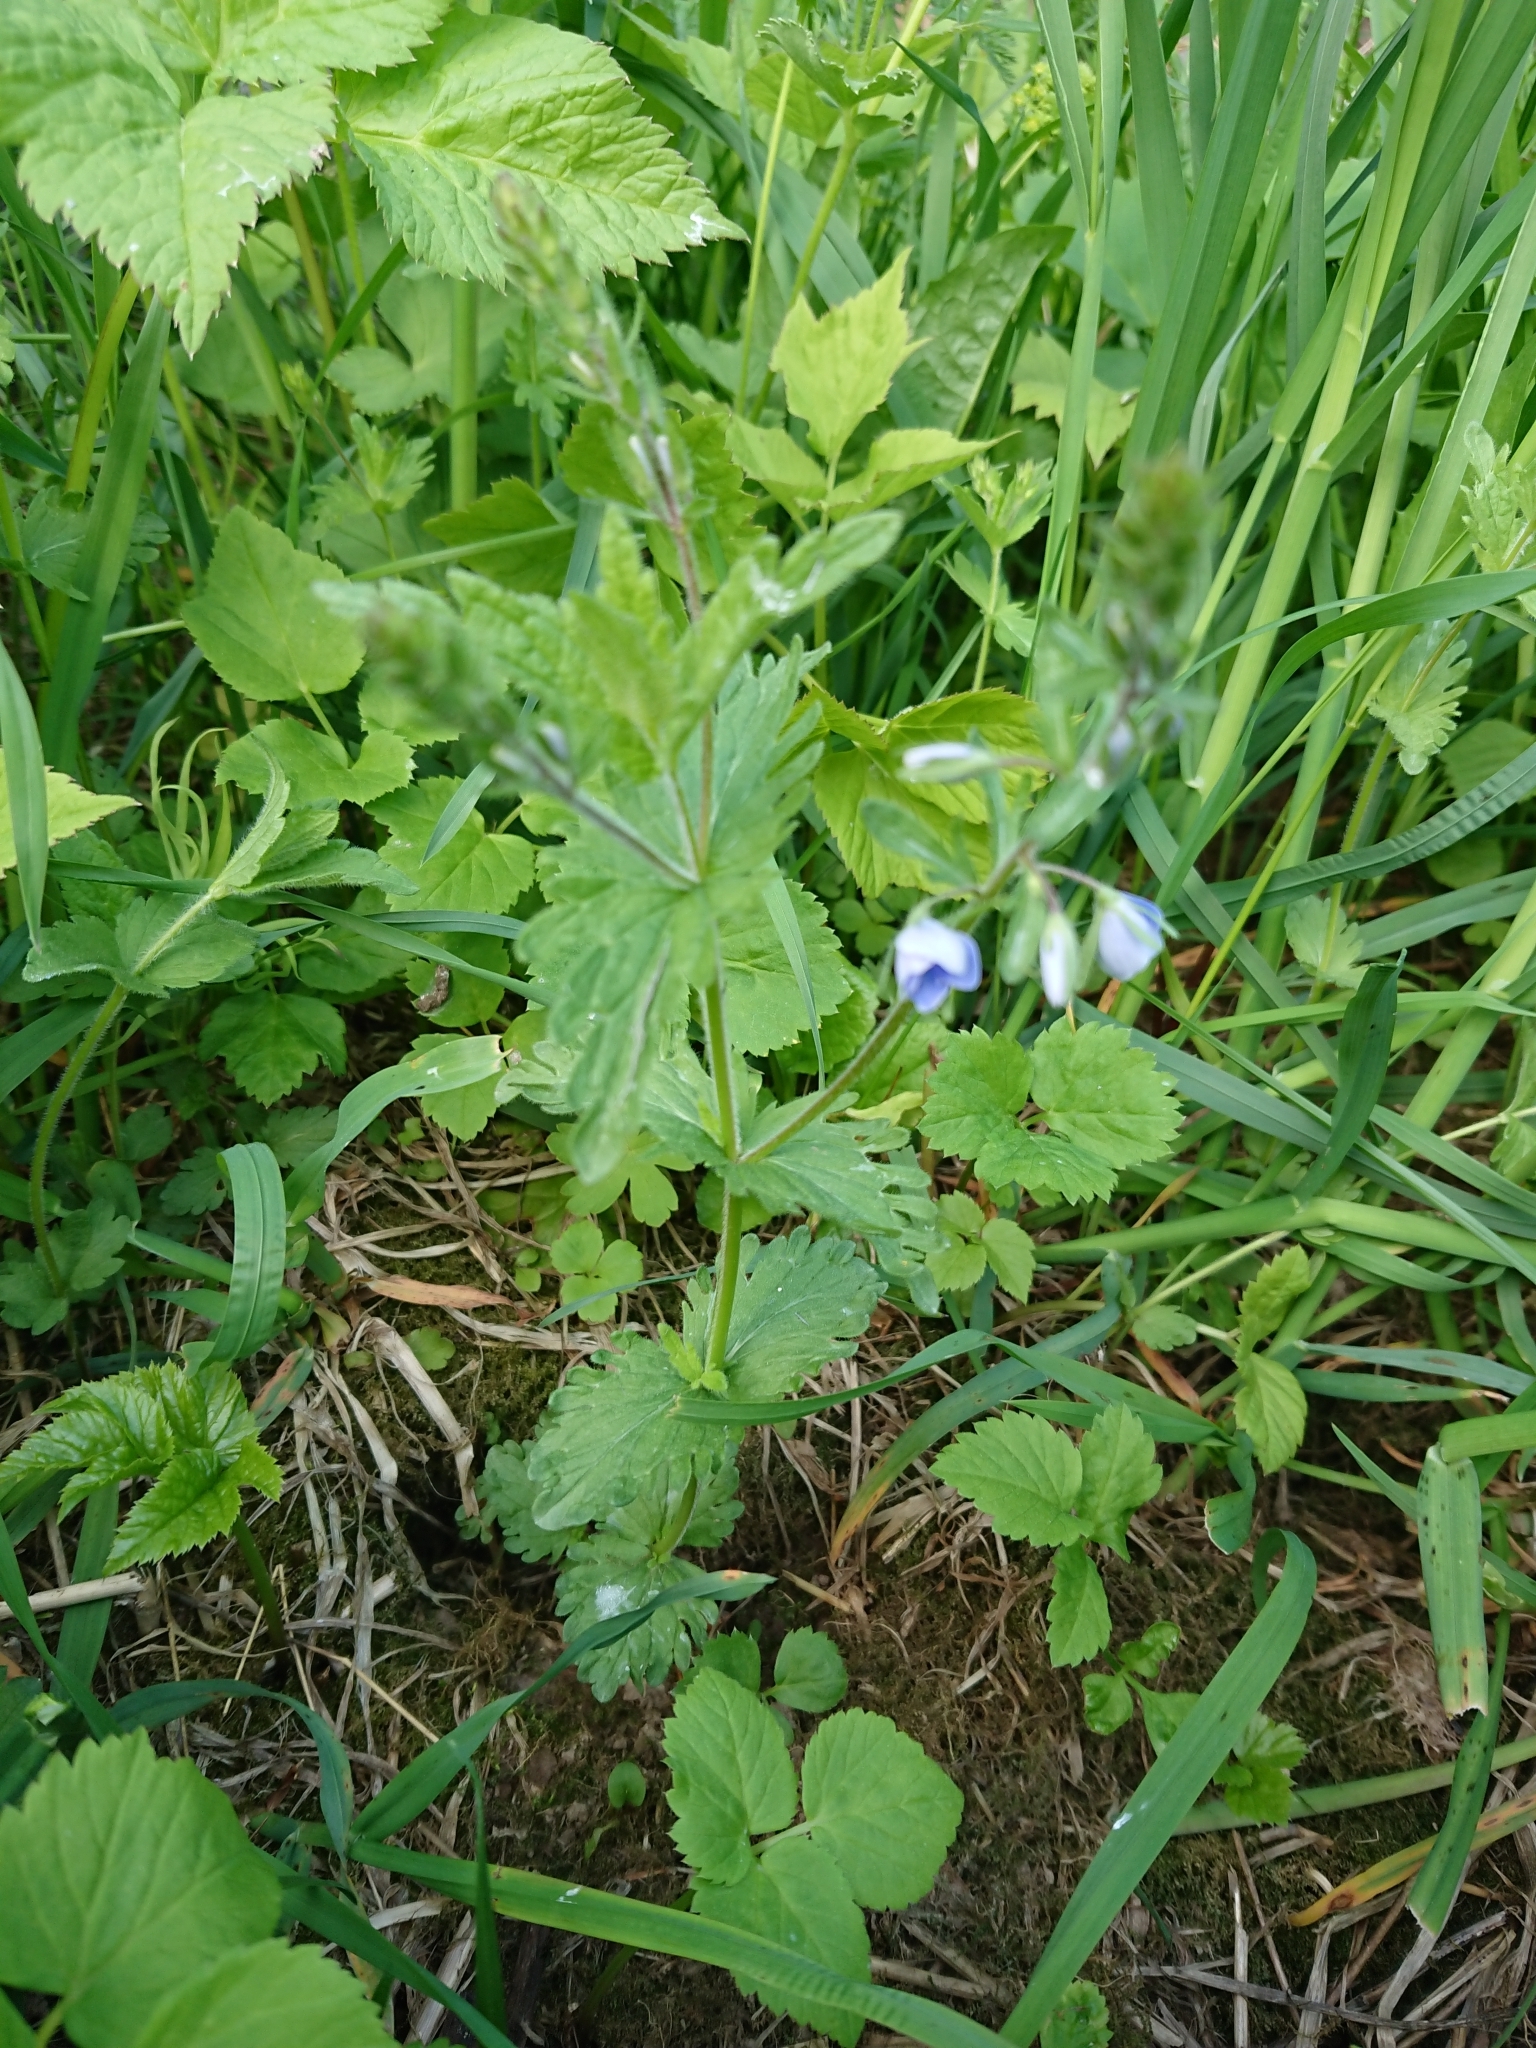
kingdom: Plantae
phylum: Tracheophyta
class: Magnoliopsida
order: Lamiales
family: Plantaginaceae
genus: Veronica
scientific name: Veronica chamaedrys
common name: Germander speedwell
